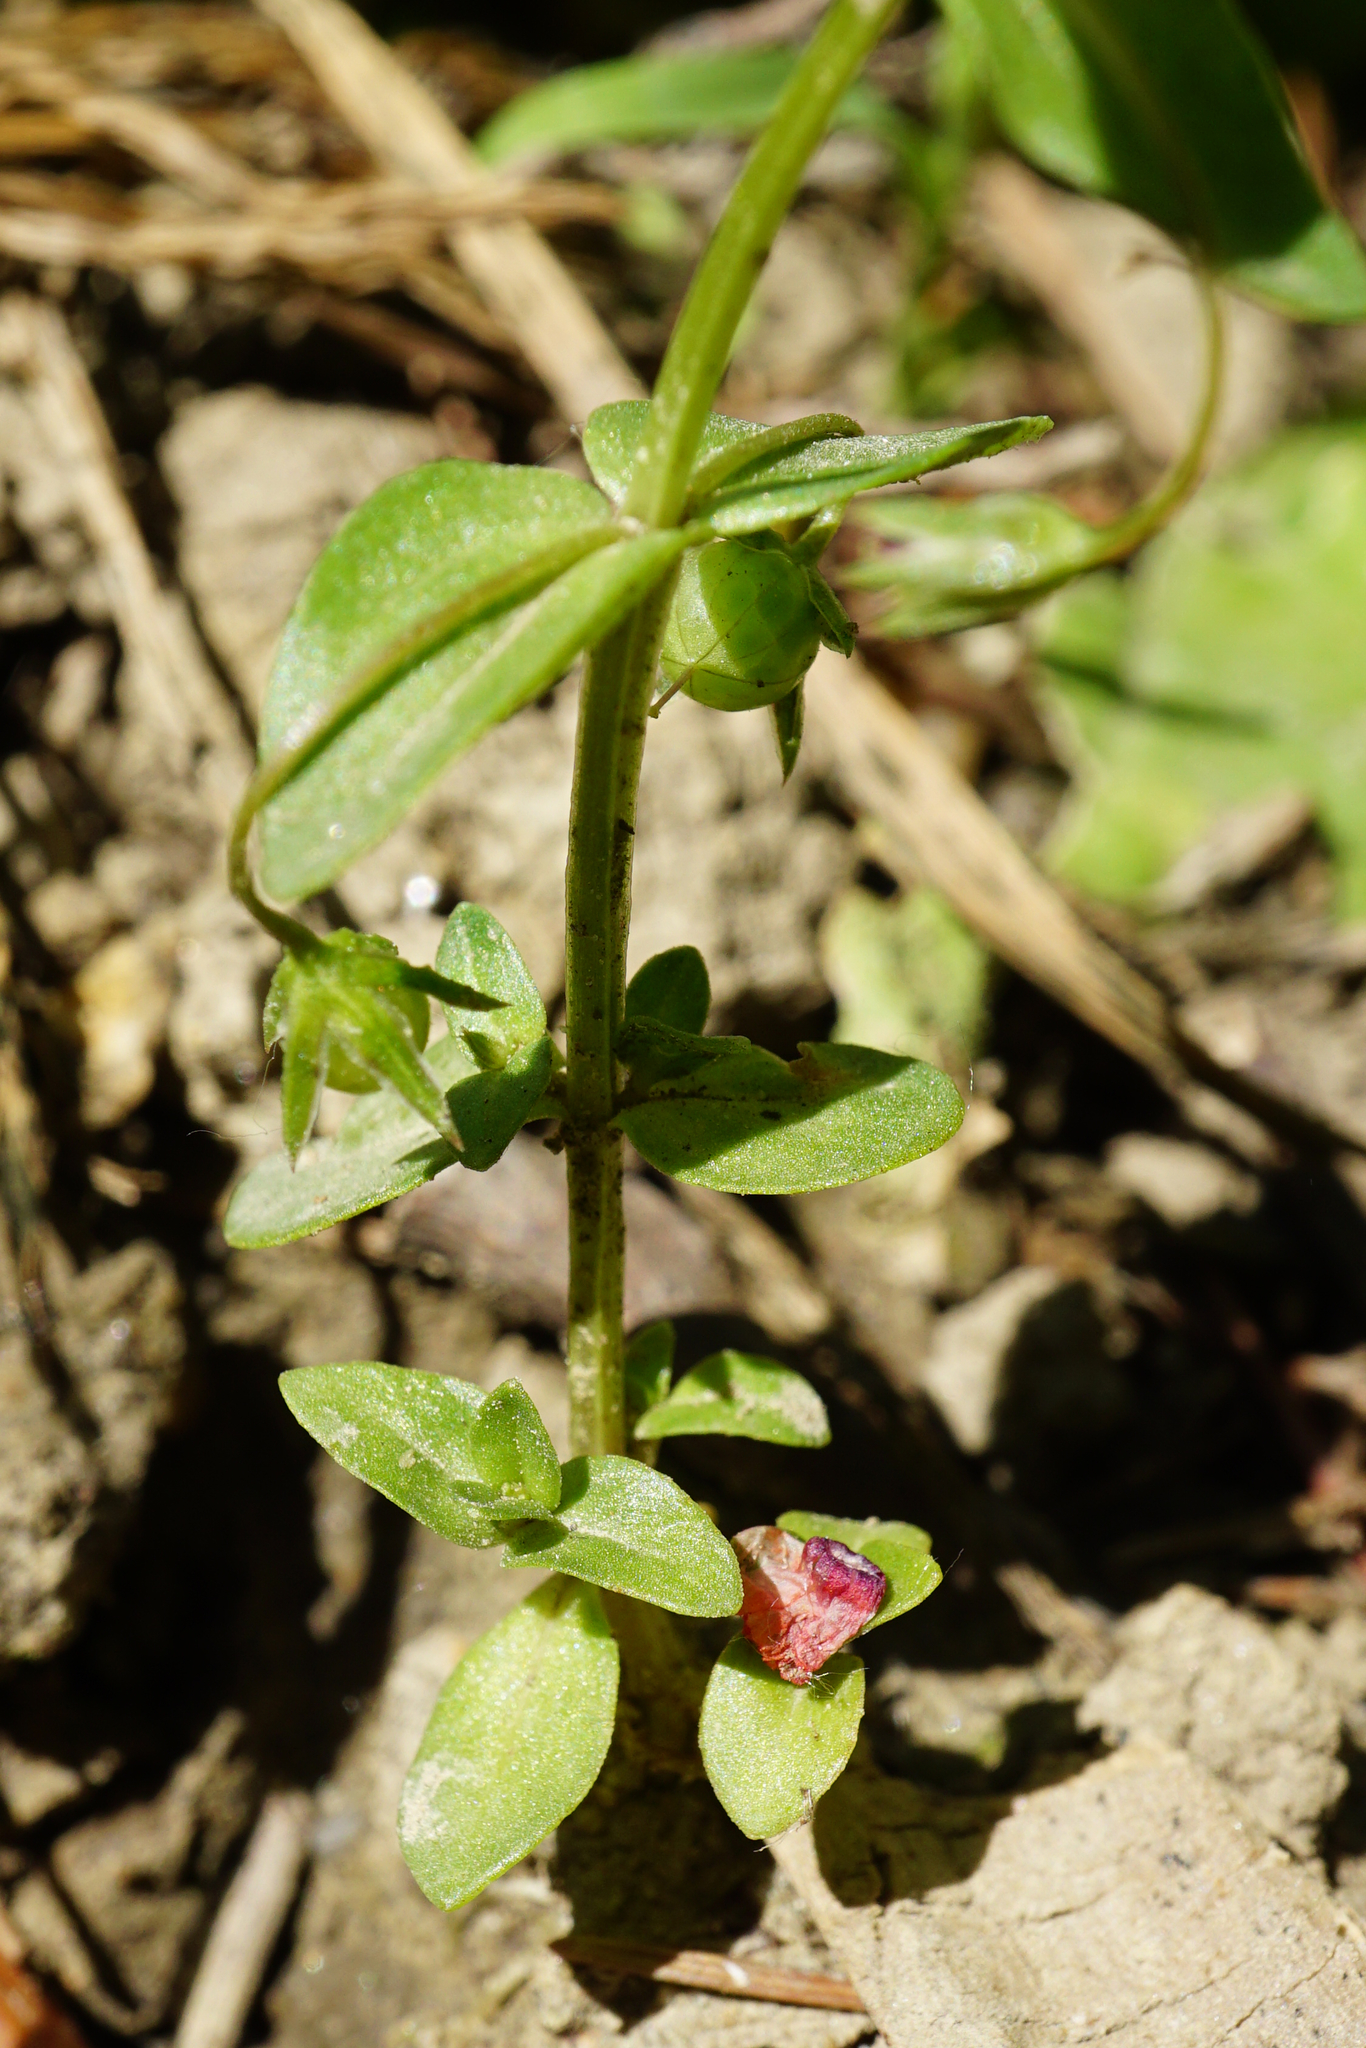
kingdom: Plantae
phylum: Tracheophyta
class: Magnoliopsida
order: Ericales
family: Primulaceae
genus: Lysimachia
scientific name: Lysimachia arvensis
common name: Scarlet pimpernel
